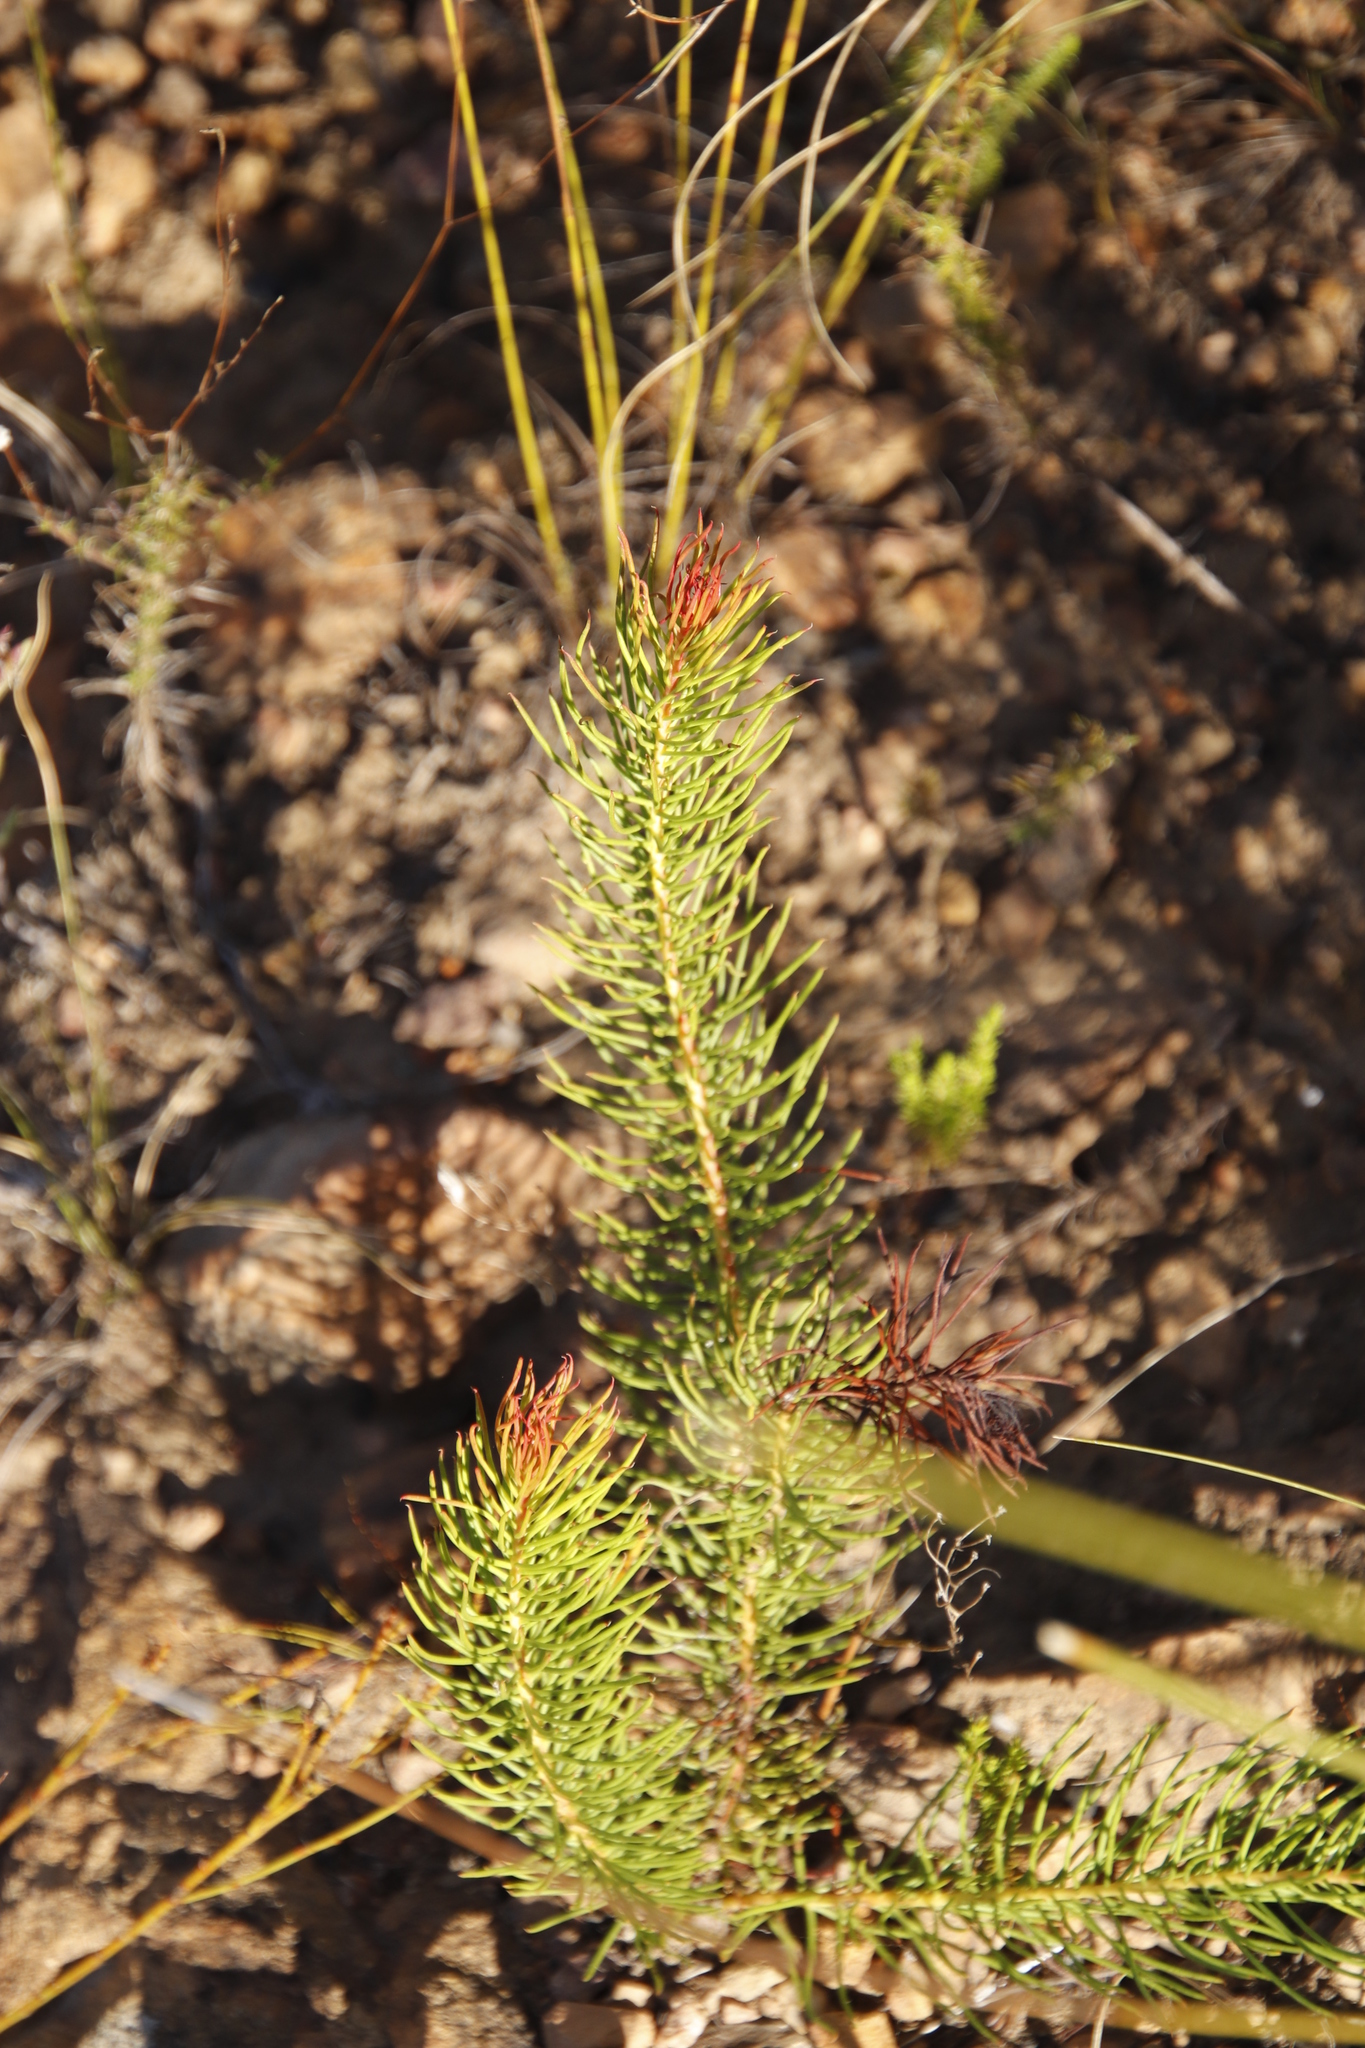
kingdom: Plantae
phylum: Tracheophyta
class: Magnoliopsida
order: Proteales
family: Proteaceae
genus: Protea
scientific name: Protea subulifolia
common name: Awl-leaf sugarbush
